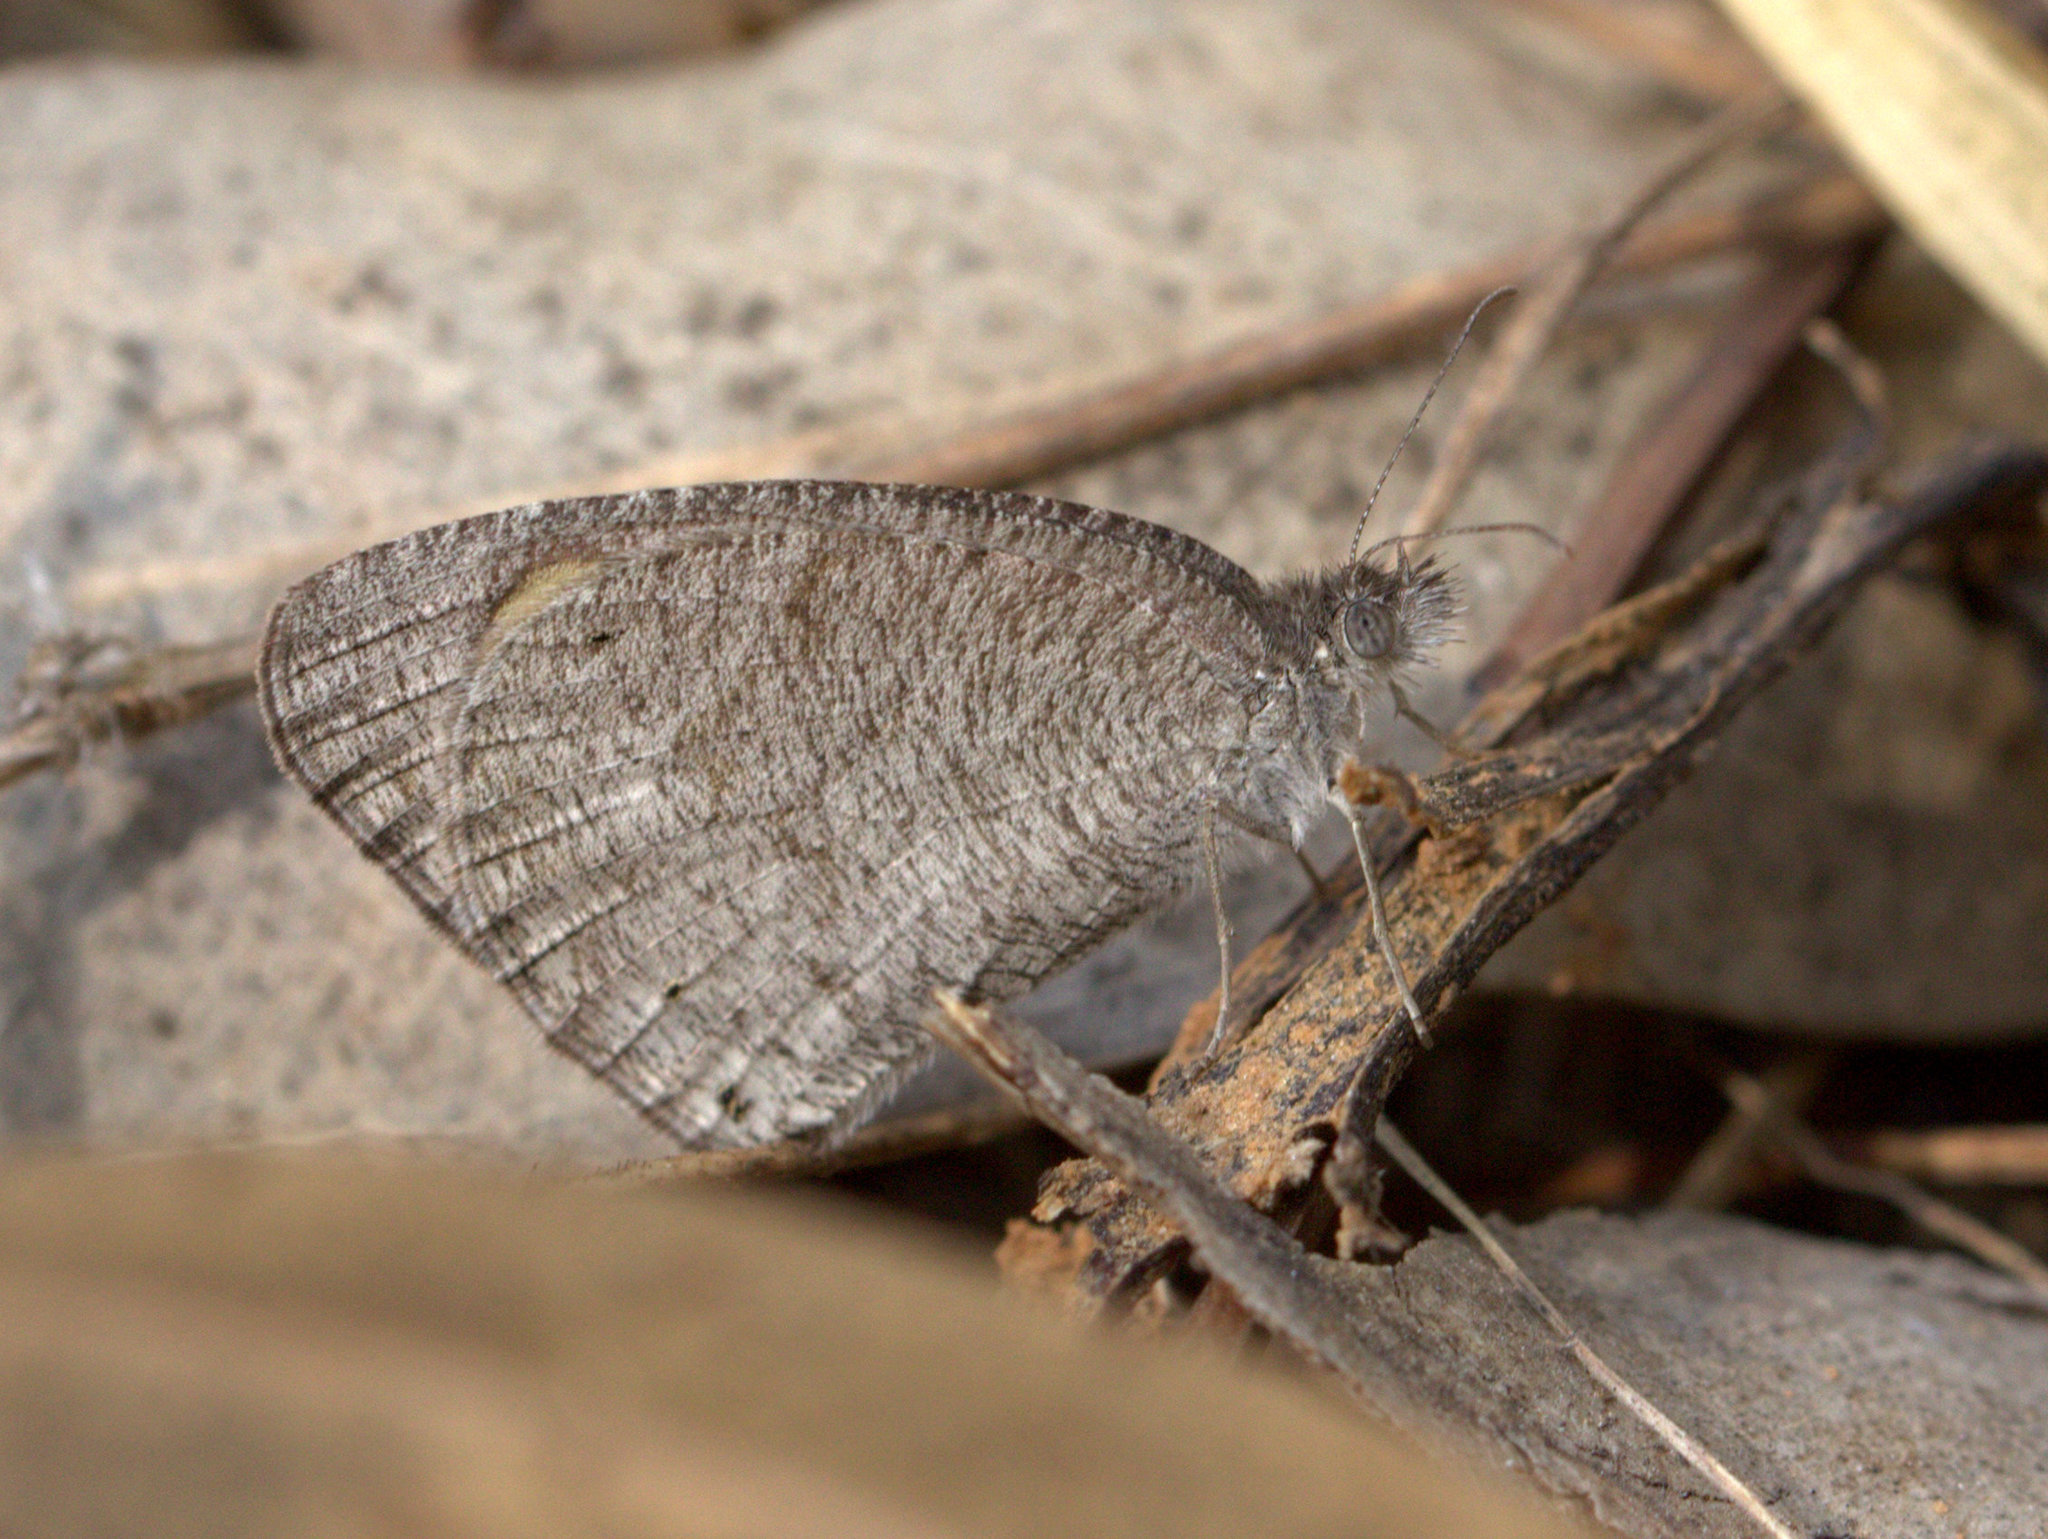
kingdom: Animalia
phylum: Arthropoda
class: Insecta
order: Lepidoptera
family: Nymphalidae
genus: Ypthima
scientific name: Ypthima asterope
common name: African ringlet
